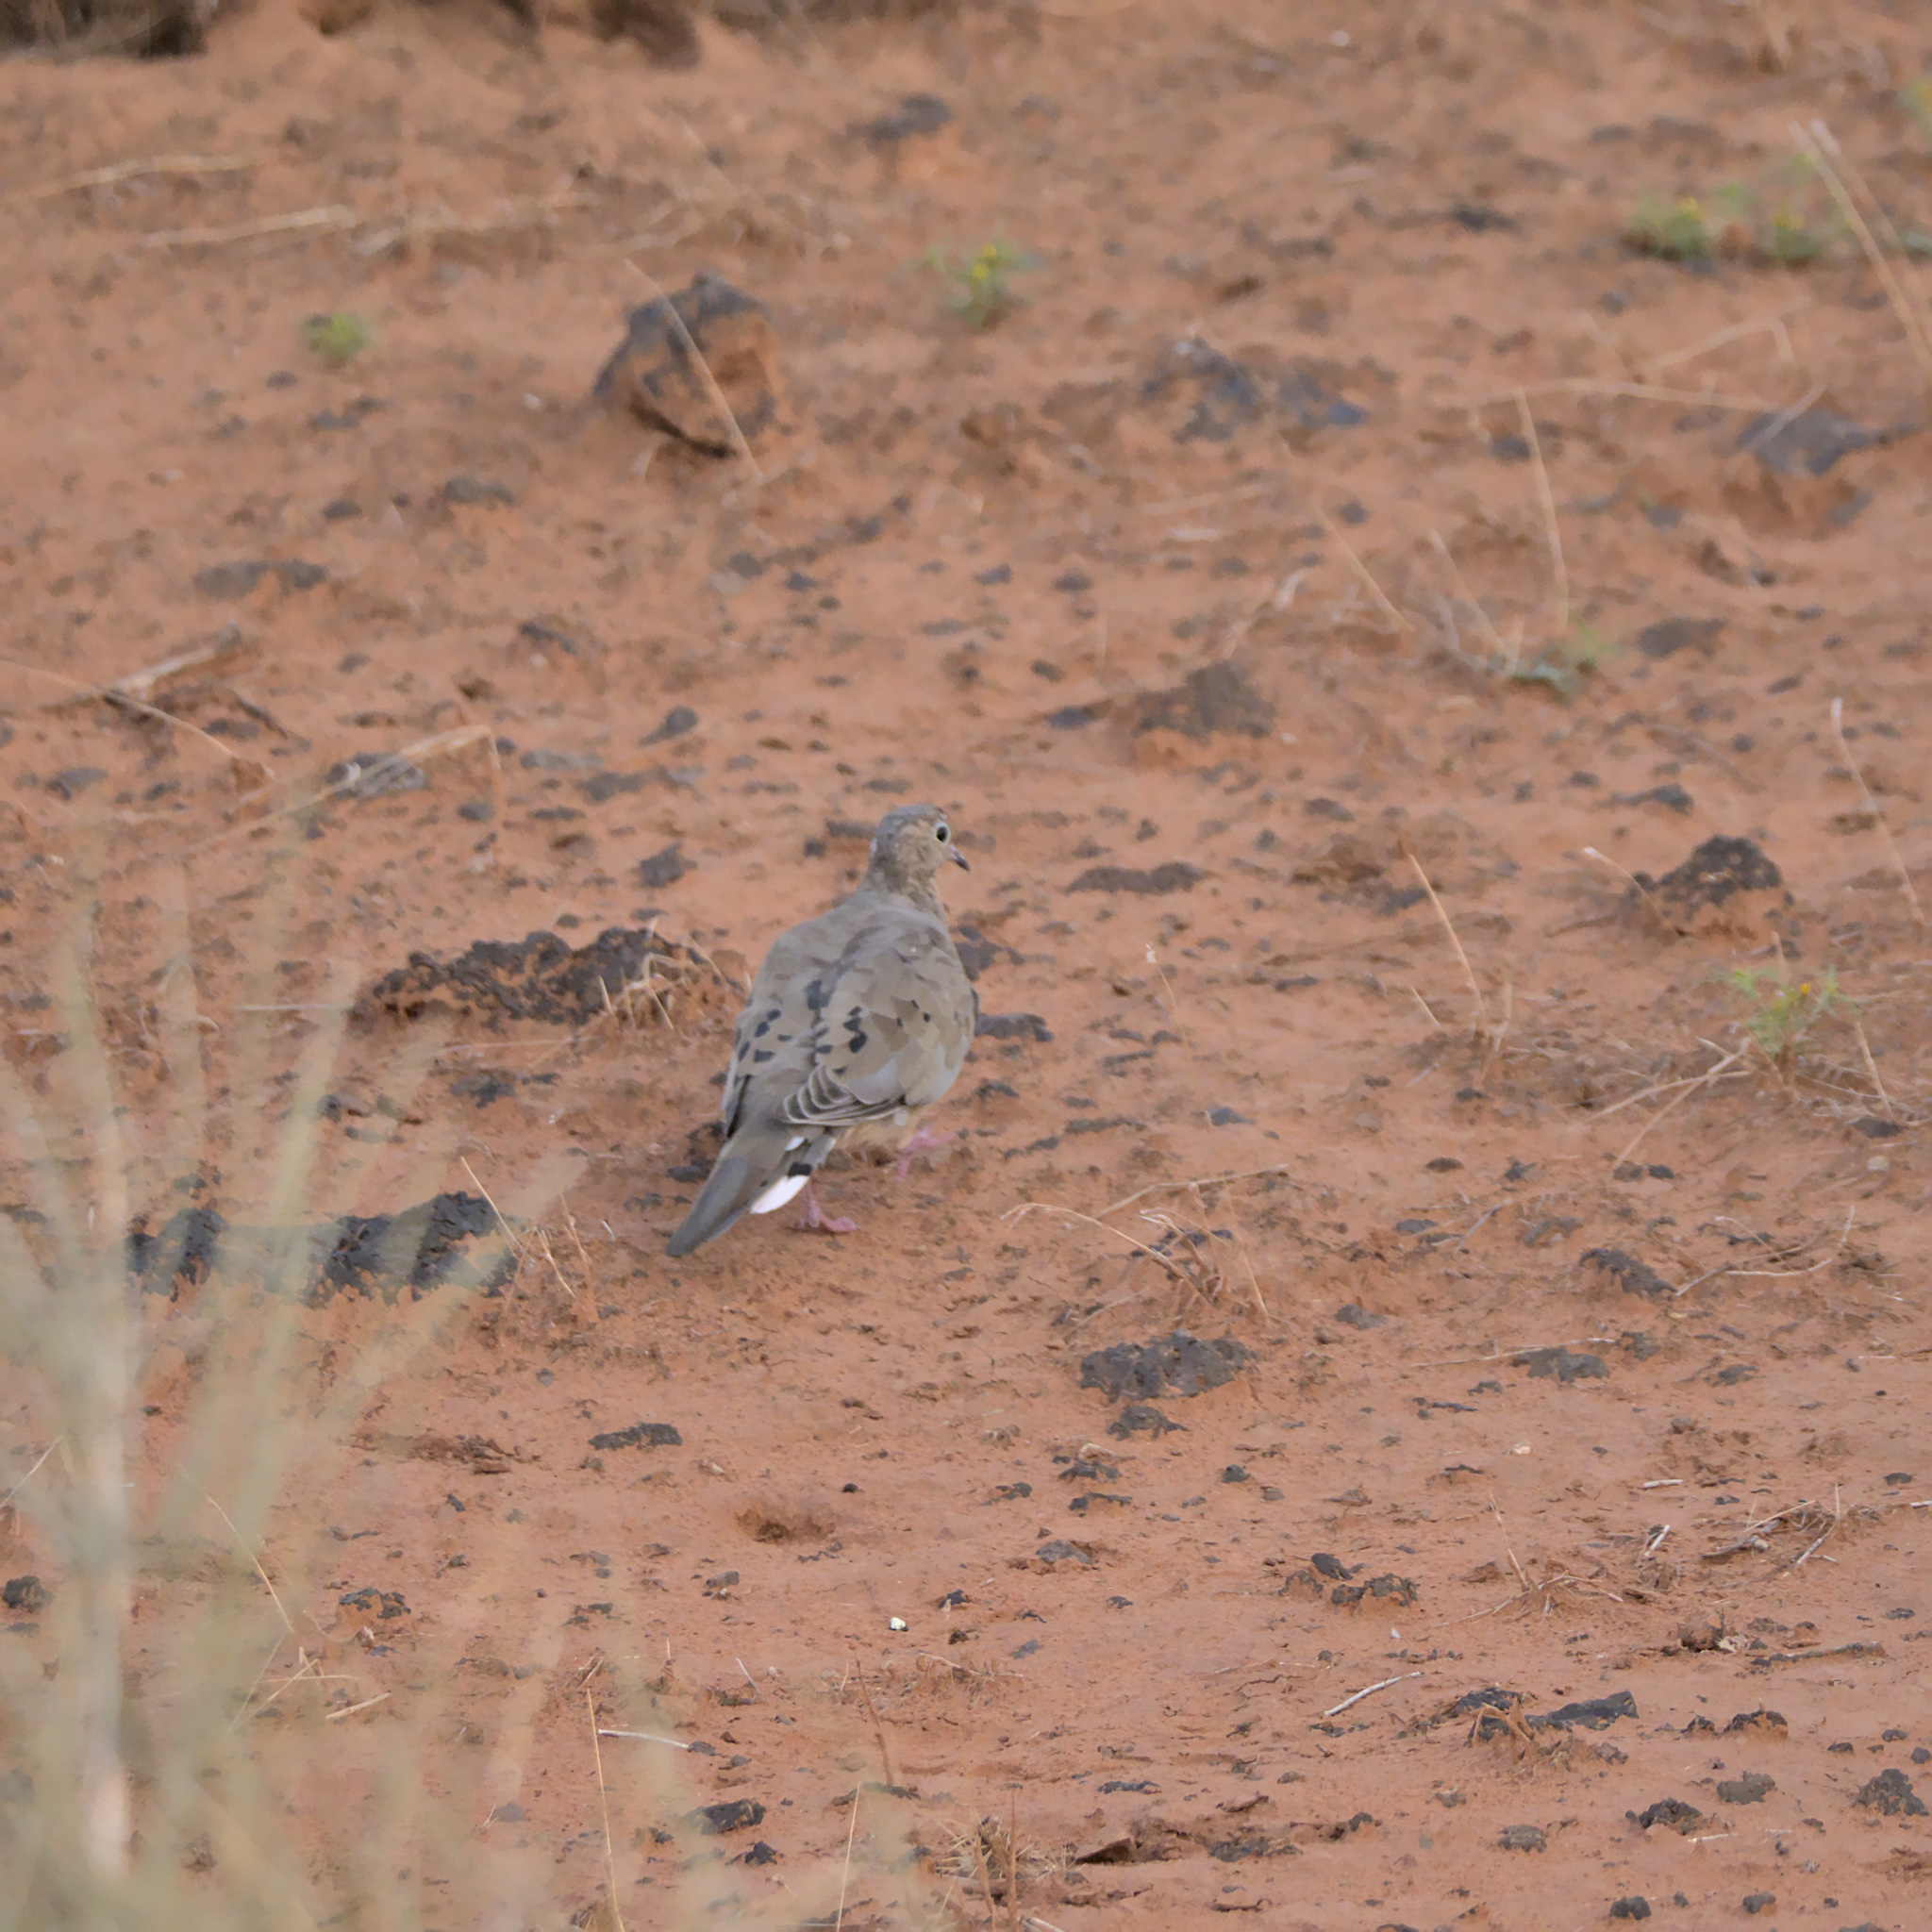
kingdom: Animalia
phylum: Chordata
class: Aves
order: Columbiformes
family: Columbidae
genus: Zenaida
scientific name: Zenaida macroura
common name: Mourning dove
